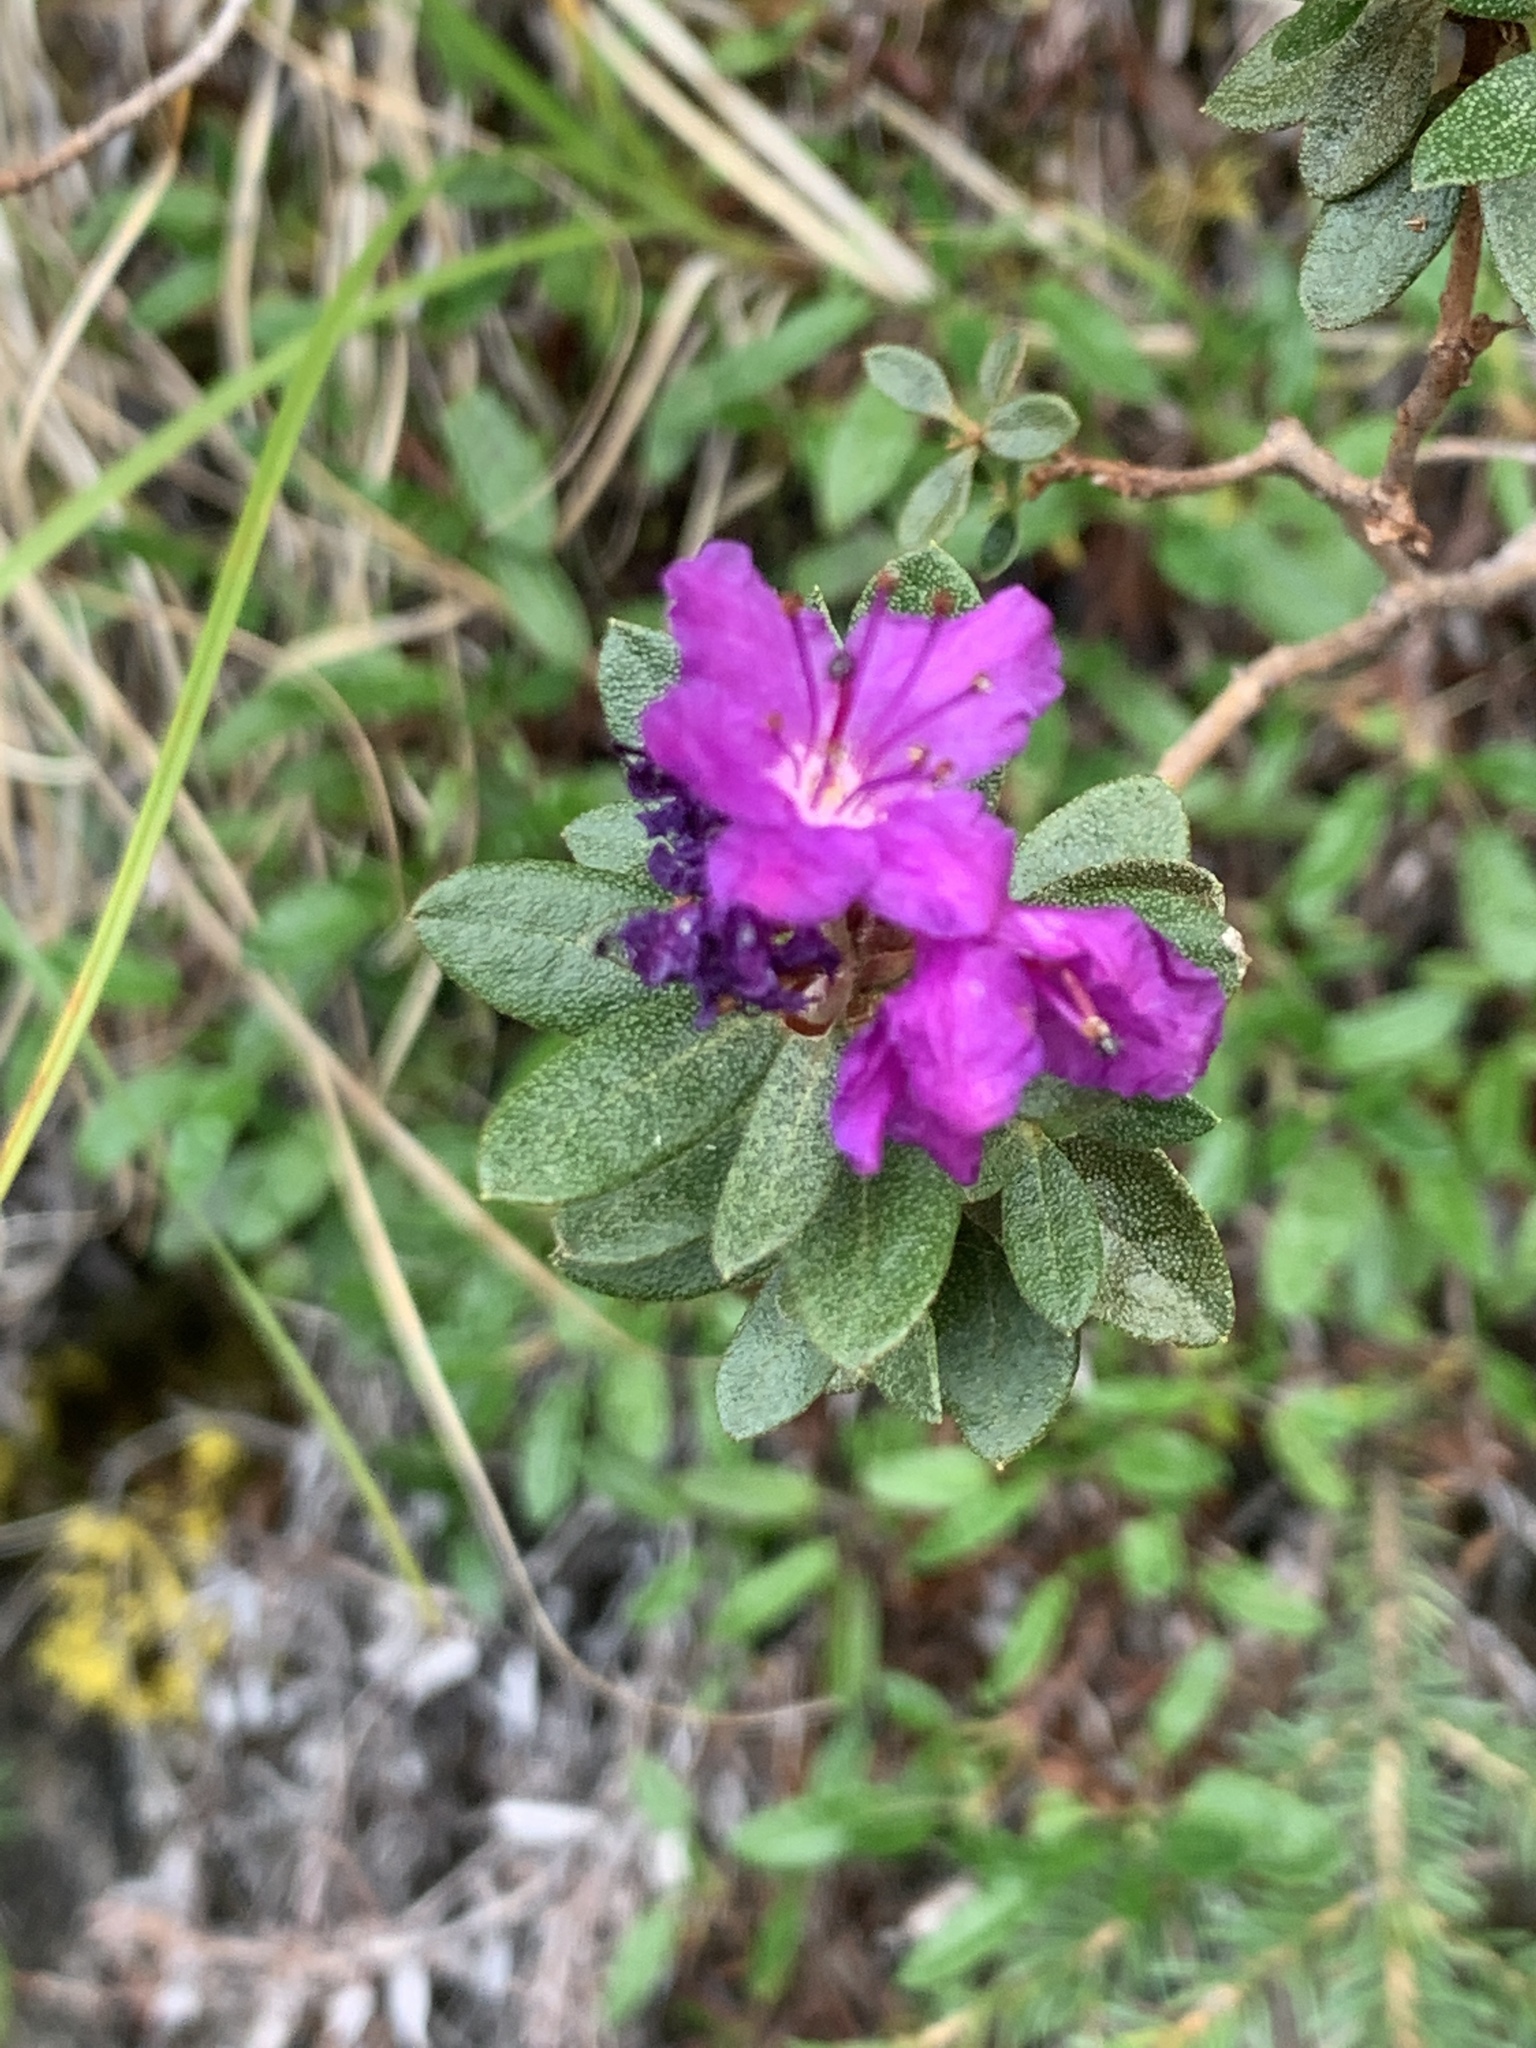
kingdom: Plantae
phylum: Tracheophyta
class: Magnoliopsida
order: Ericales
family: Ericaceae
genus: Rhododendron
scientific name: Rhododendron lapponicum
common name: Lapland rhododendron
